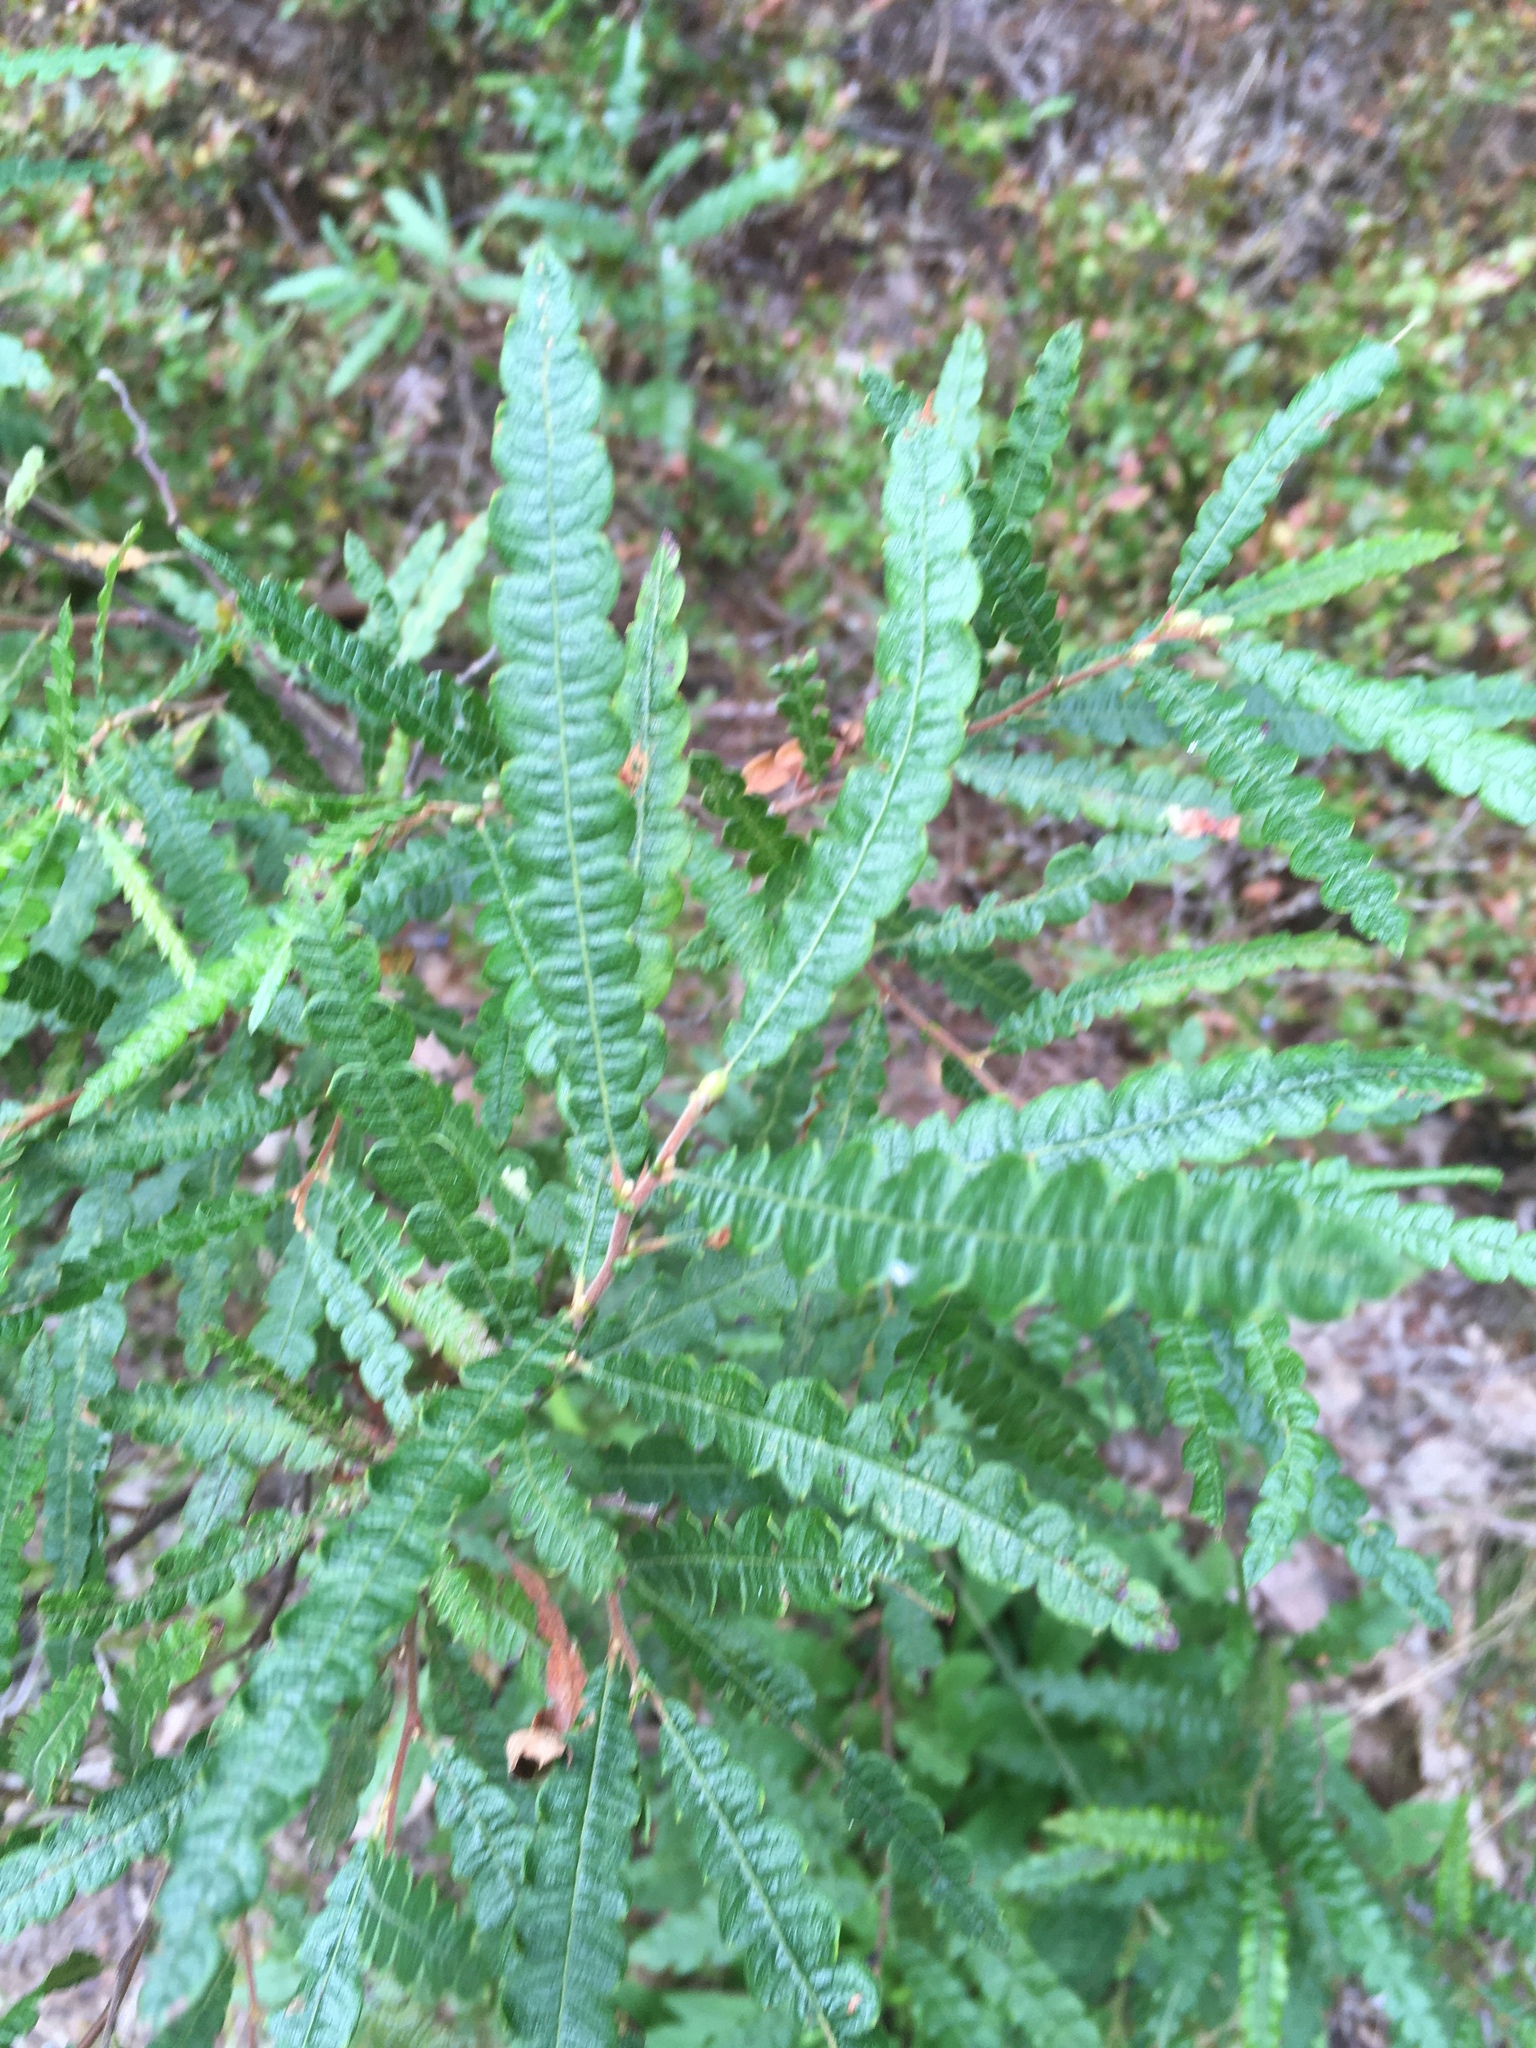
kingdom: Plantae
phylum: Tracheophyta
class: Magnoliopsida
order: Fagales
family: Myricaceae
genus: Comptonia
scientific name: Comptonia peregrina
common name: Sweet-fern
